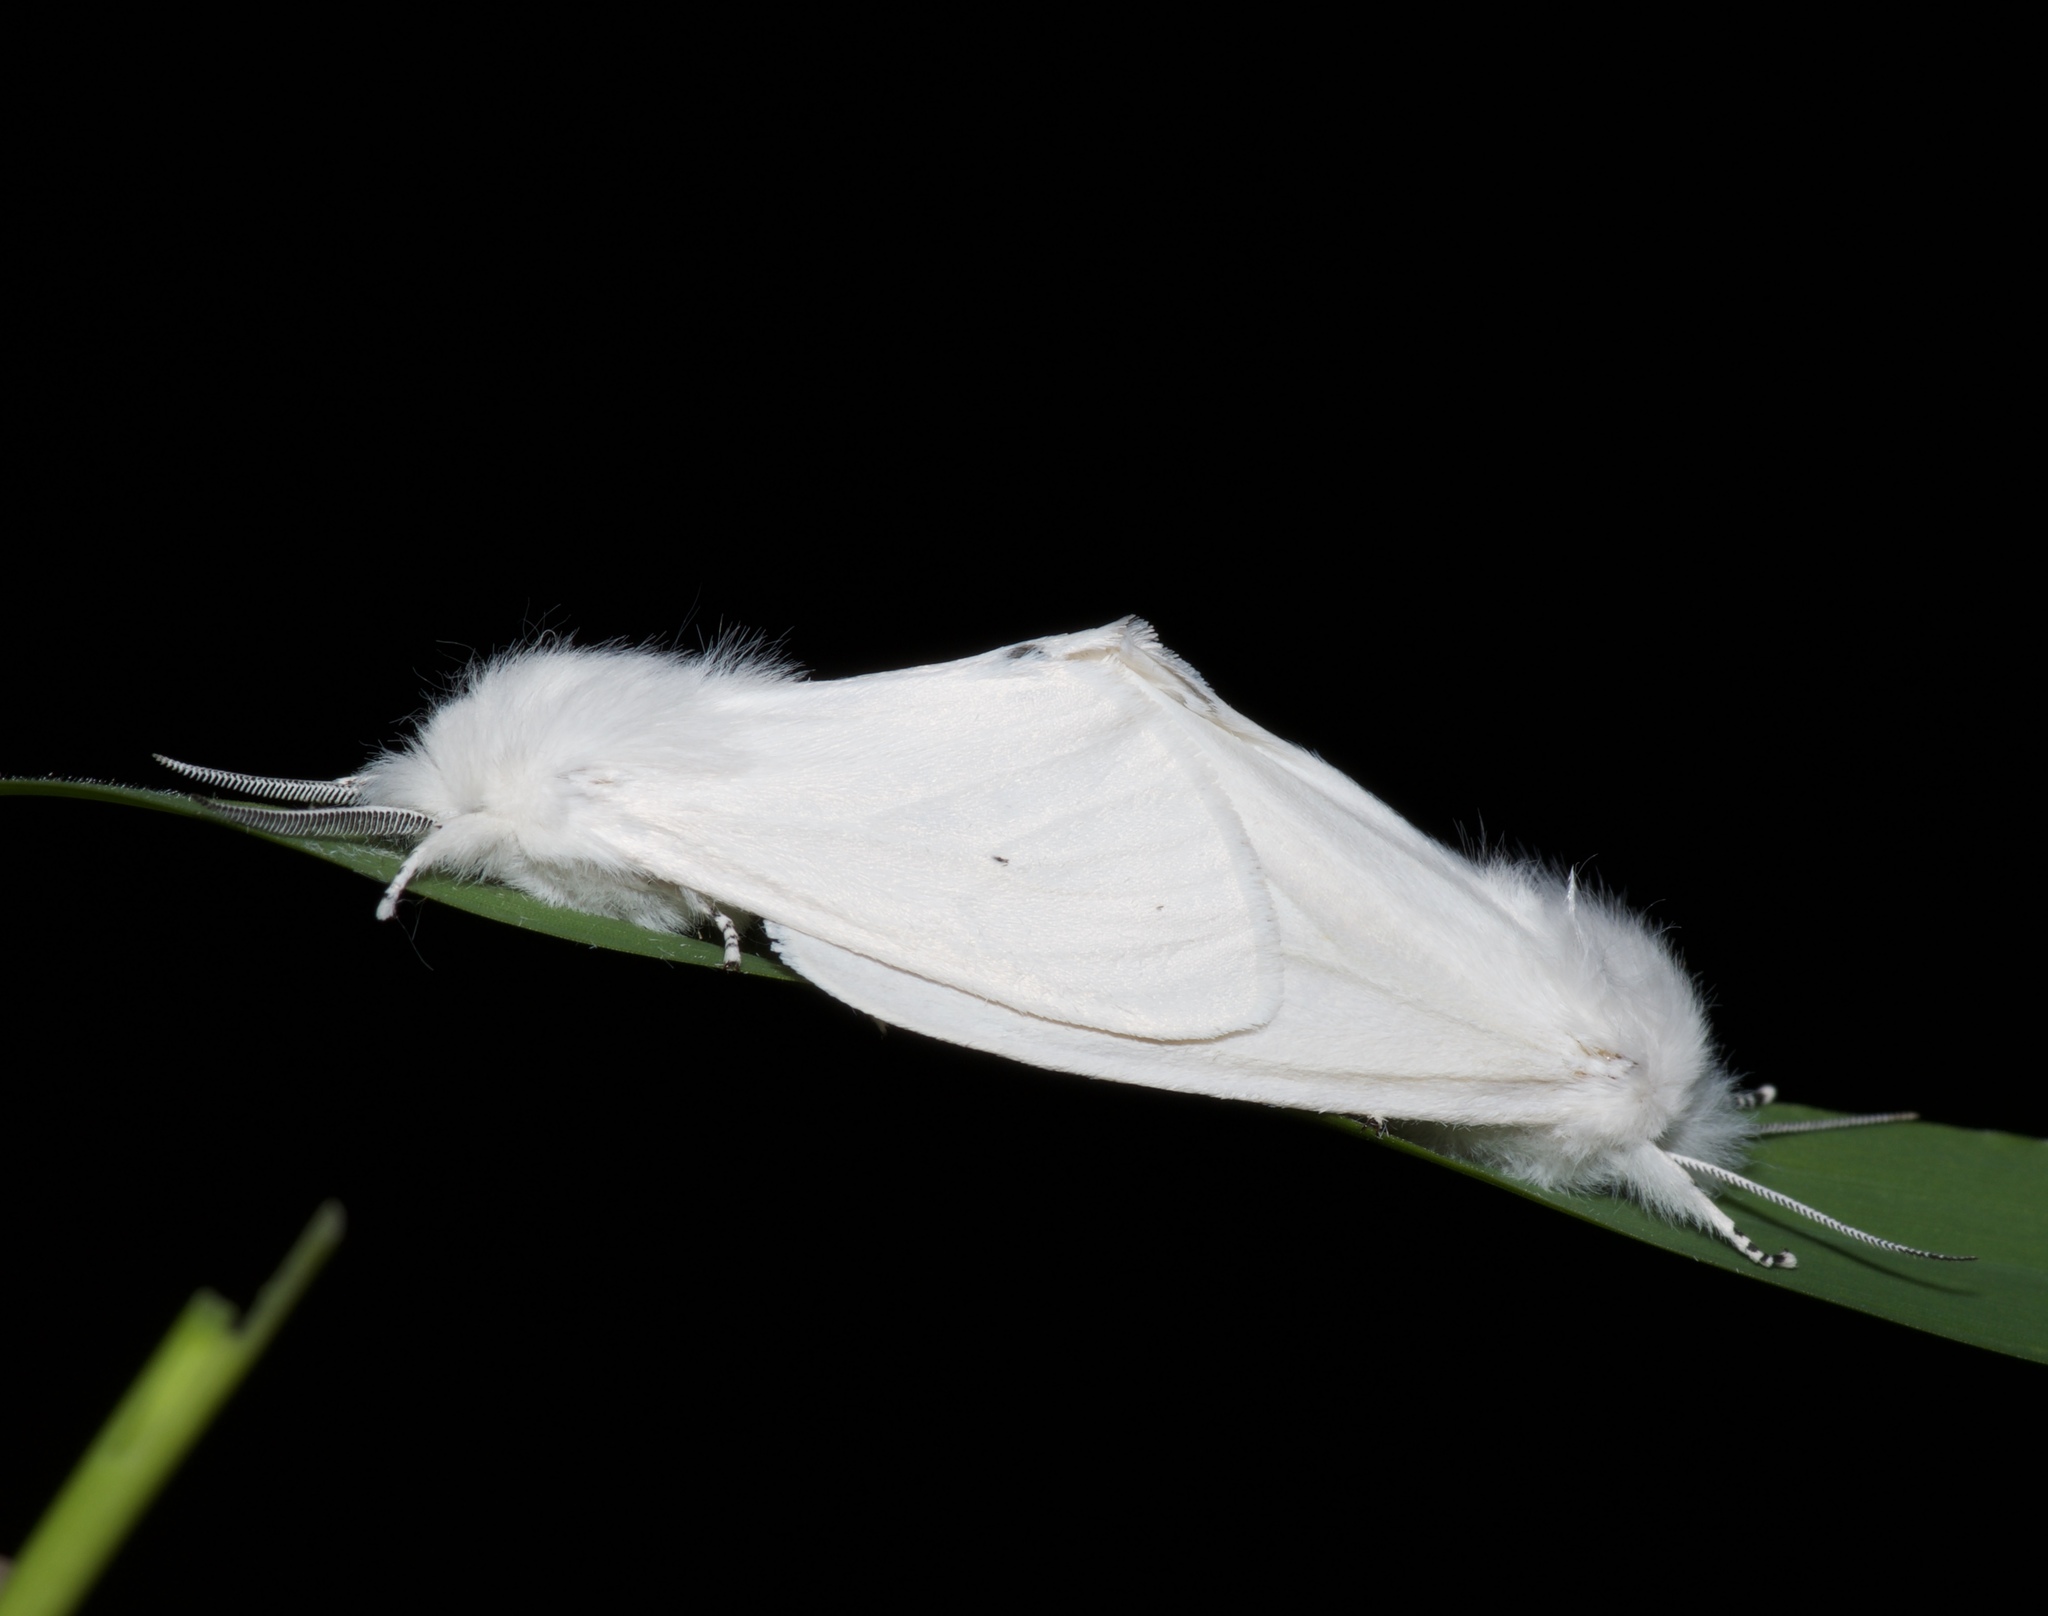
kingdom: Animalia
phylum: Arthropoda
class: Insecta
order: Lepidoptera
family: Erebidae
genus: Spilosoma
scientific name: Spilosoma virginica
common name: Virginia tiger moth
